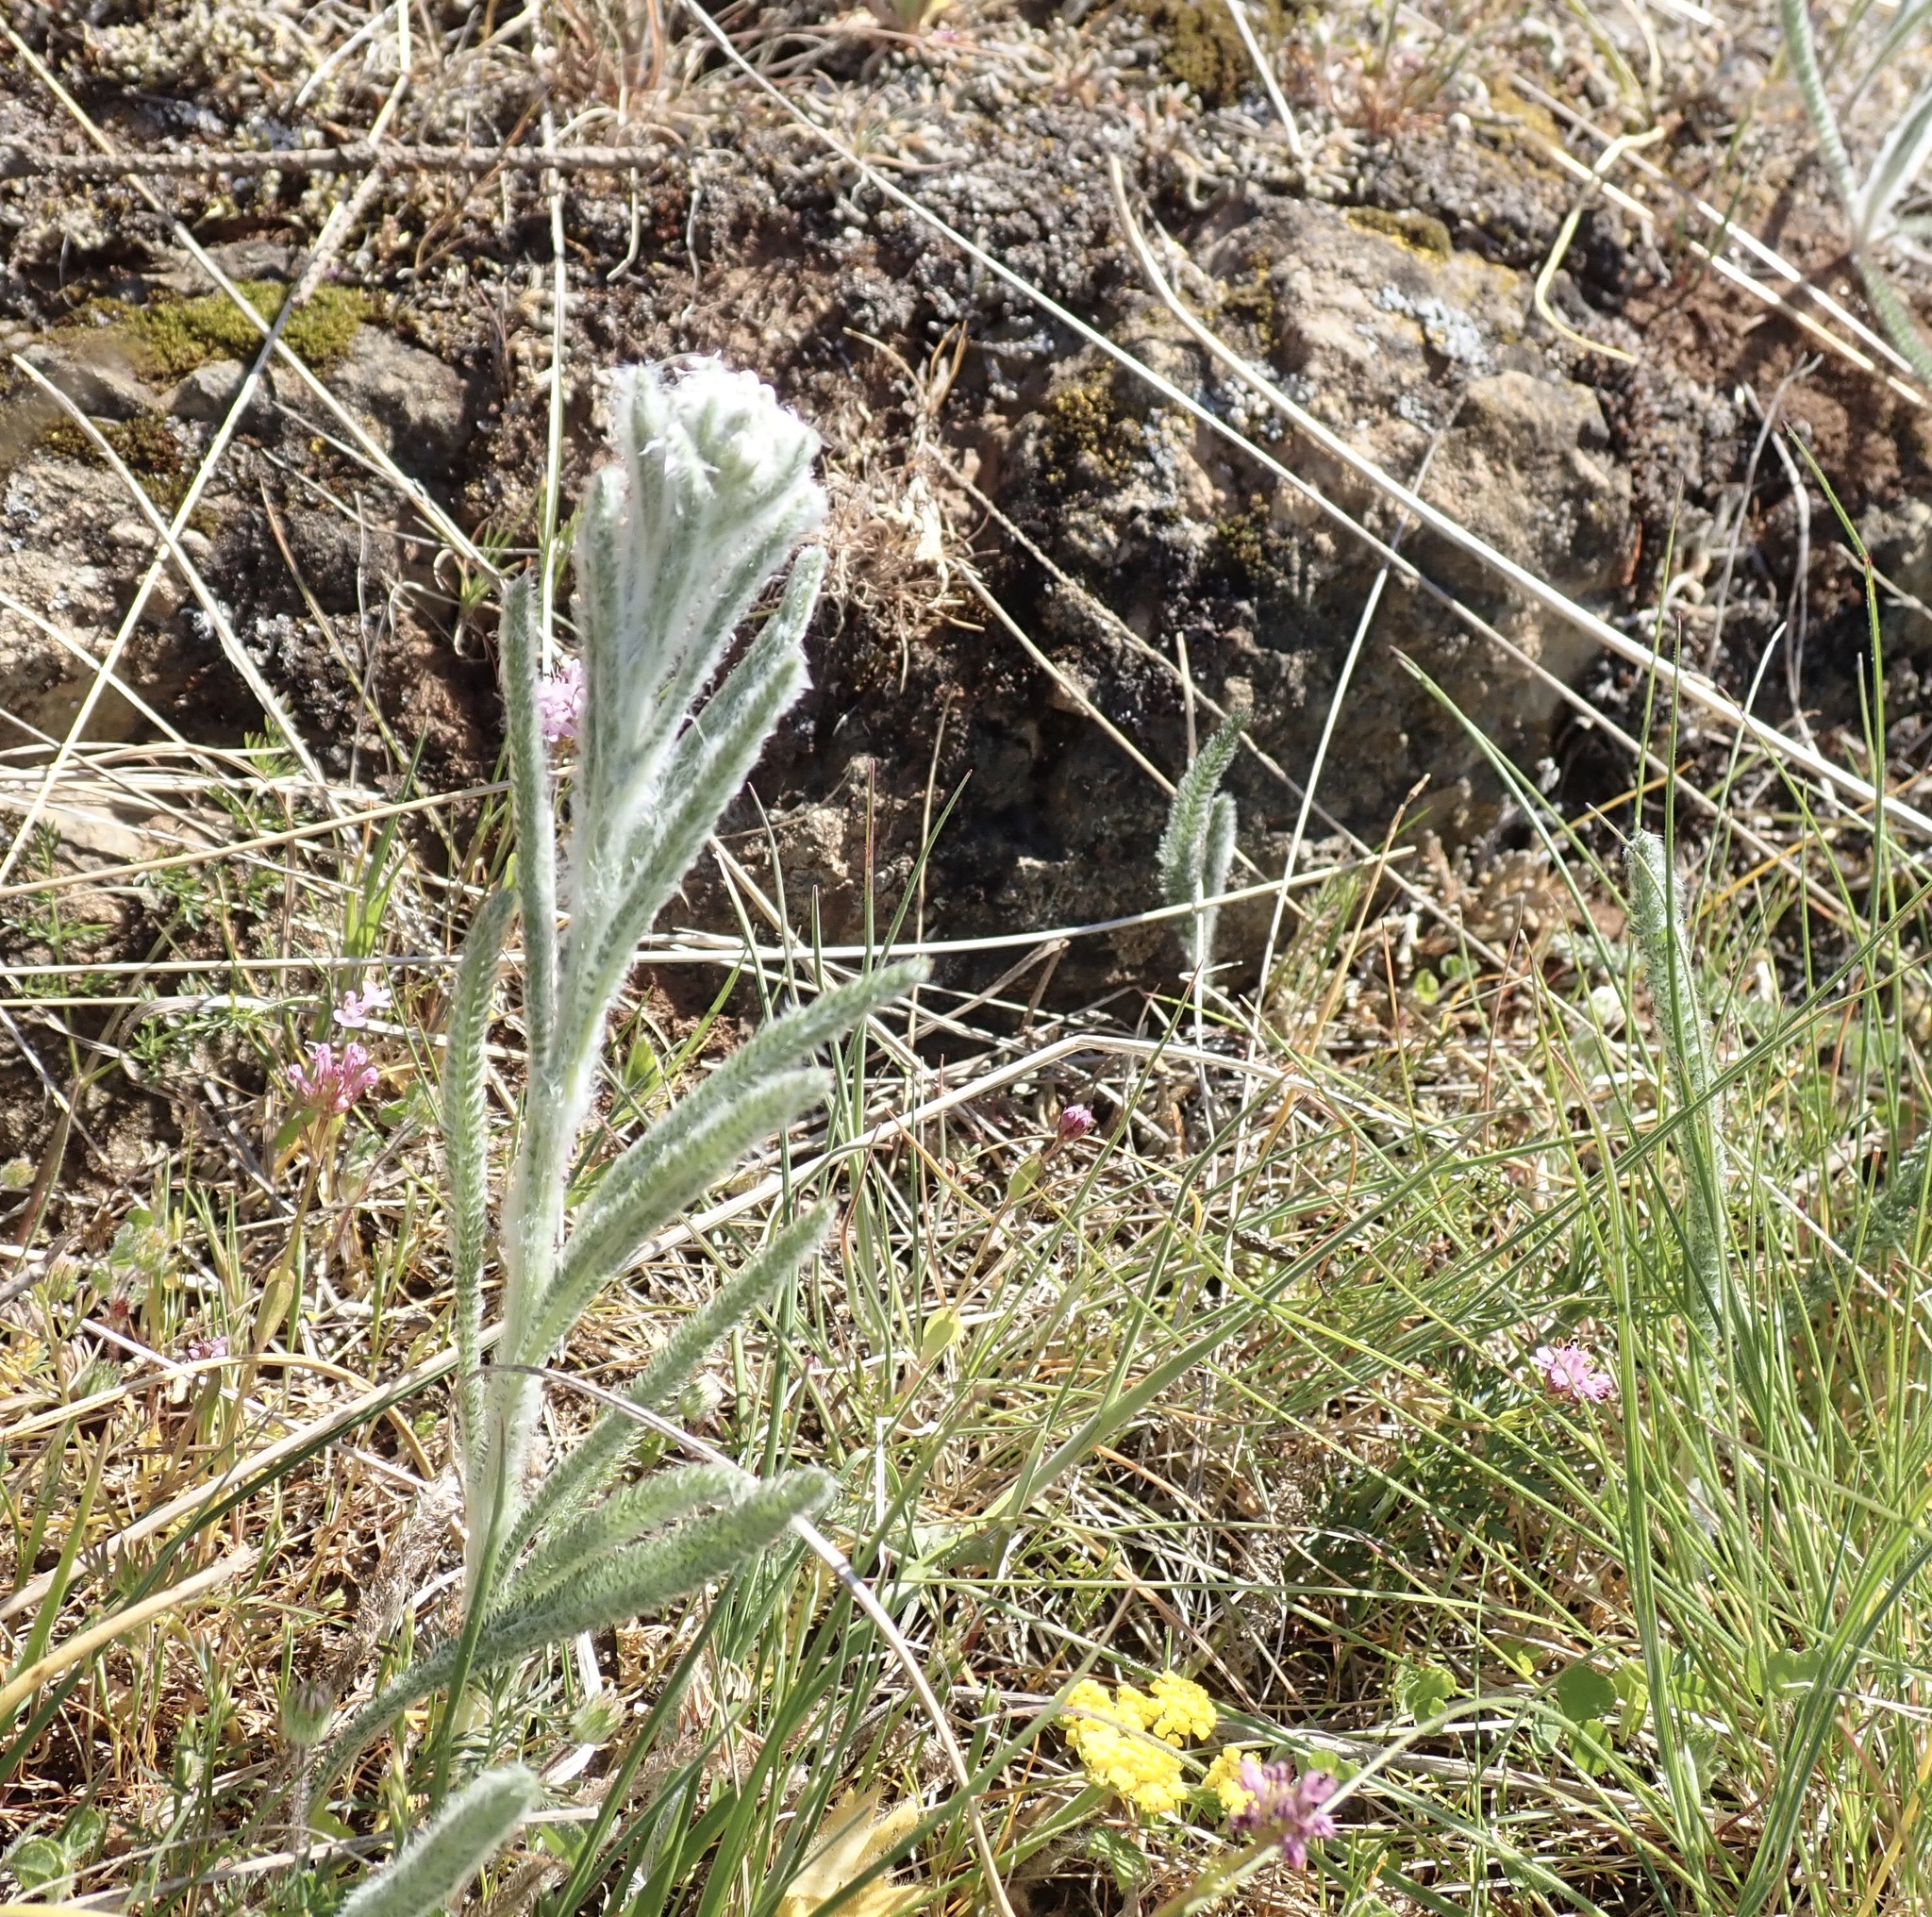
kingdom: Plantae
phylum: Tracheophyta
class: Magnoliopsida
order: Asterales
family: Asteraceae
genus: Achillea
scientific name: Achillea millefolium
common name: Yarrow
